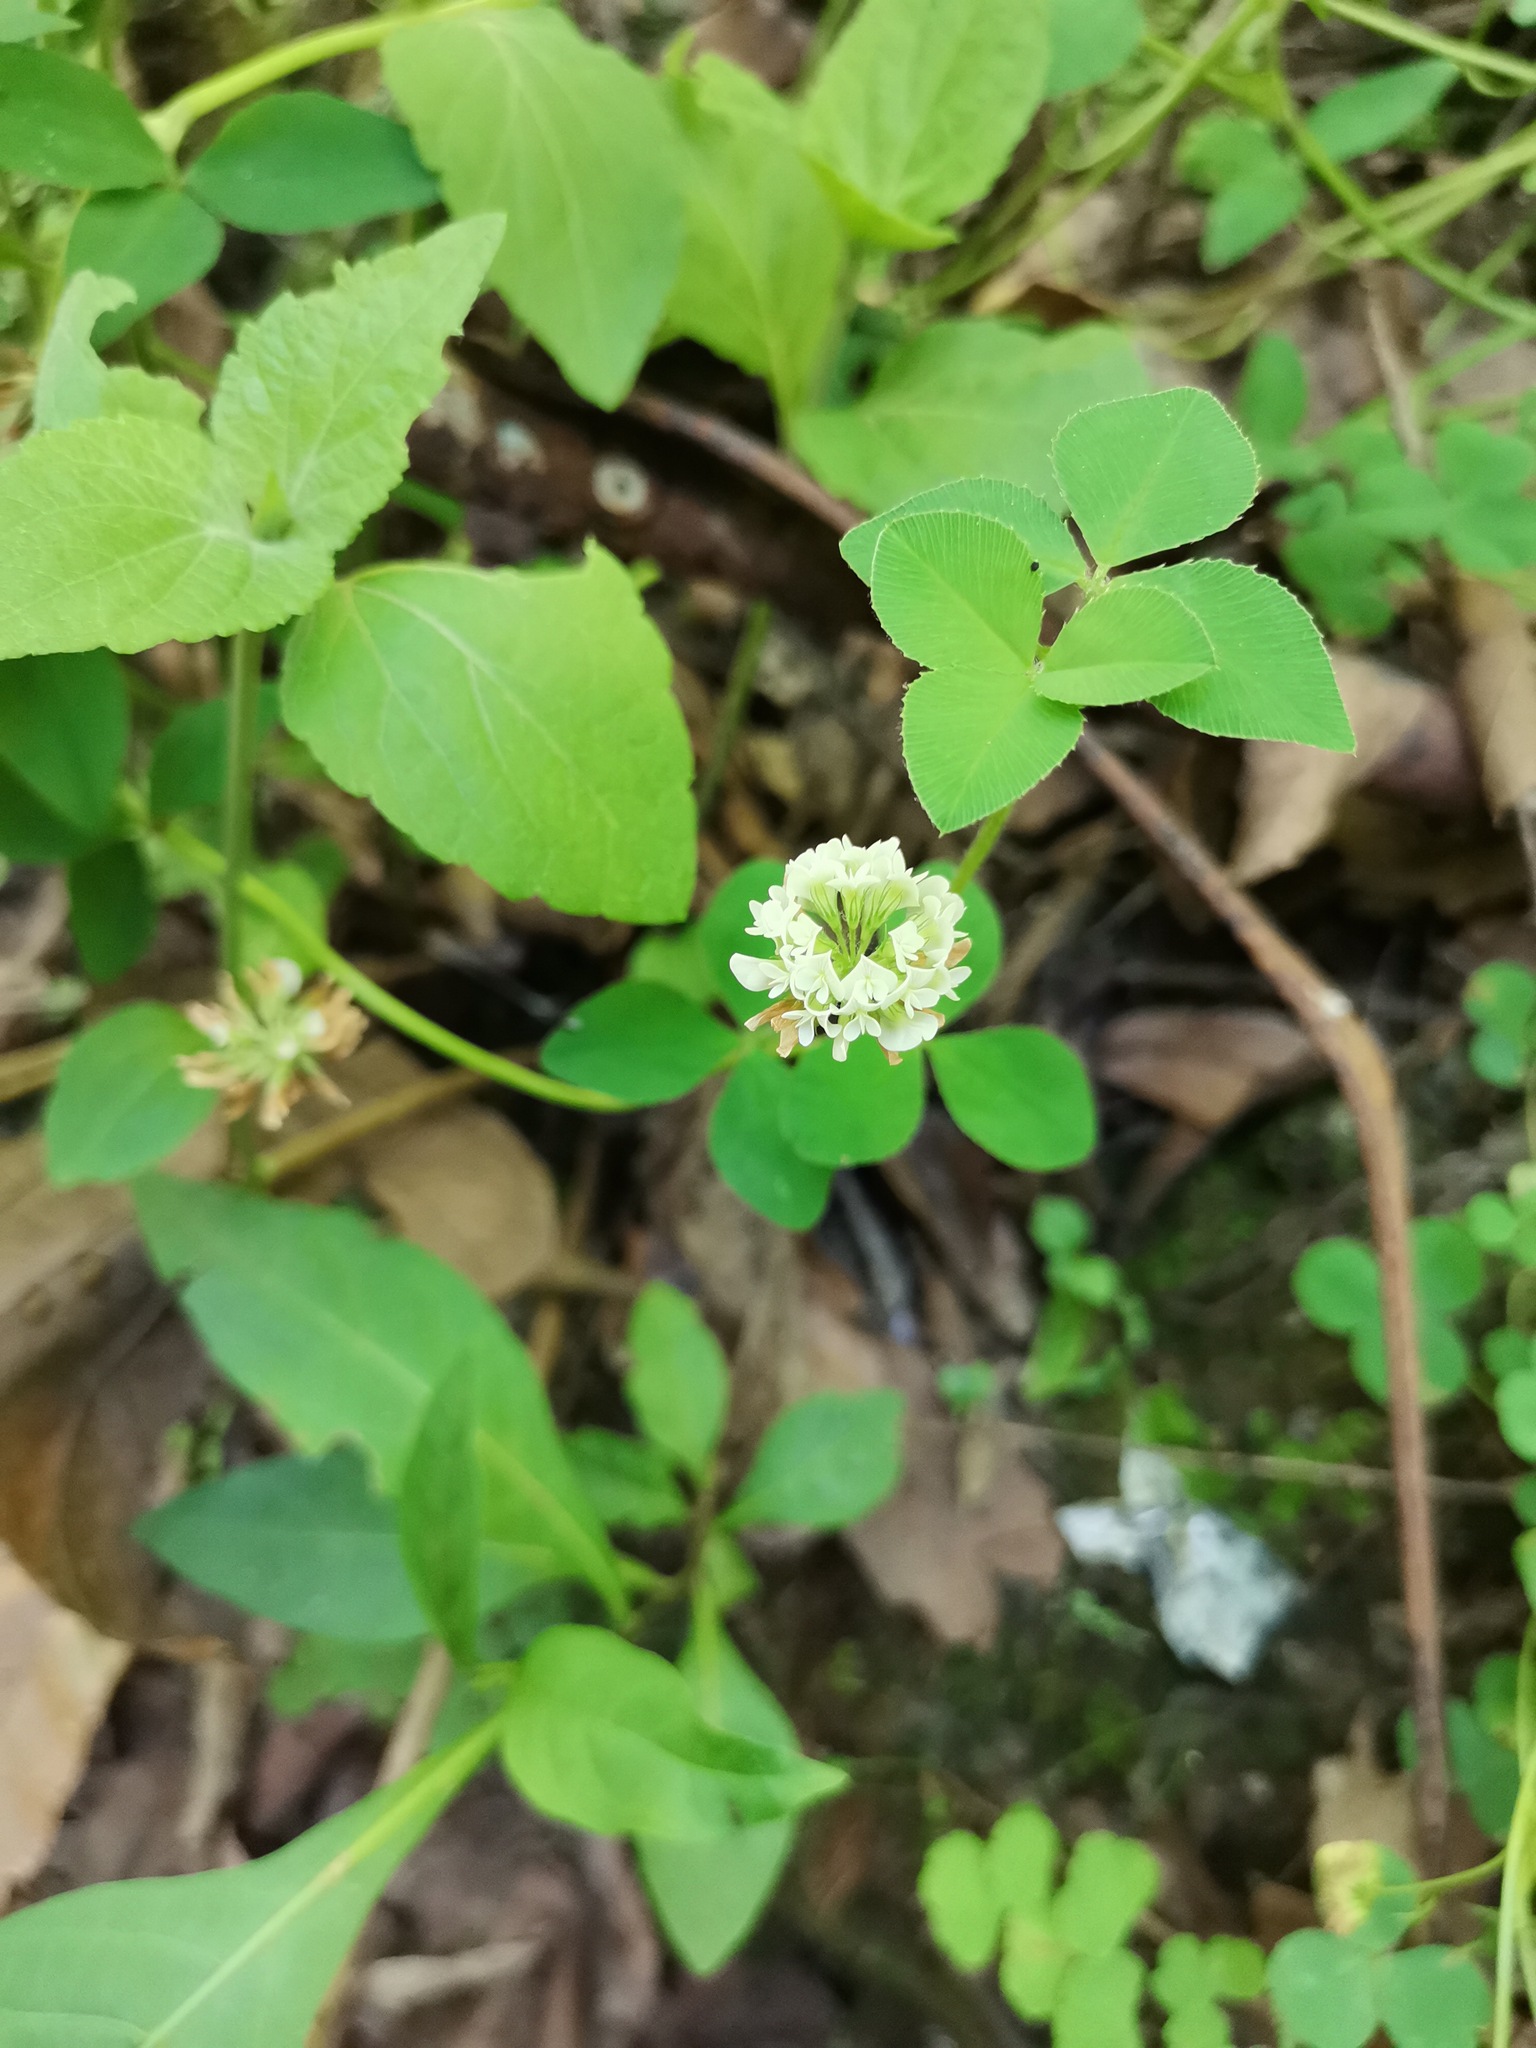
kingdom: Plantae
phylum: Tracheophyta
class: Magnoliopsida
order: Fabales
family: Fabaceae
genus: Trifolium
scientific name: Trifolium amabile
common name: Aztec clover
